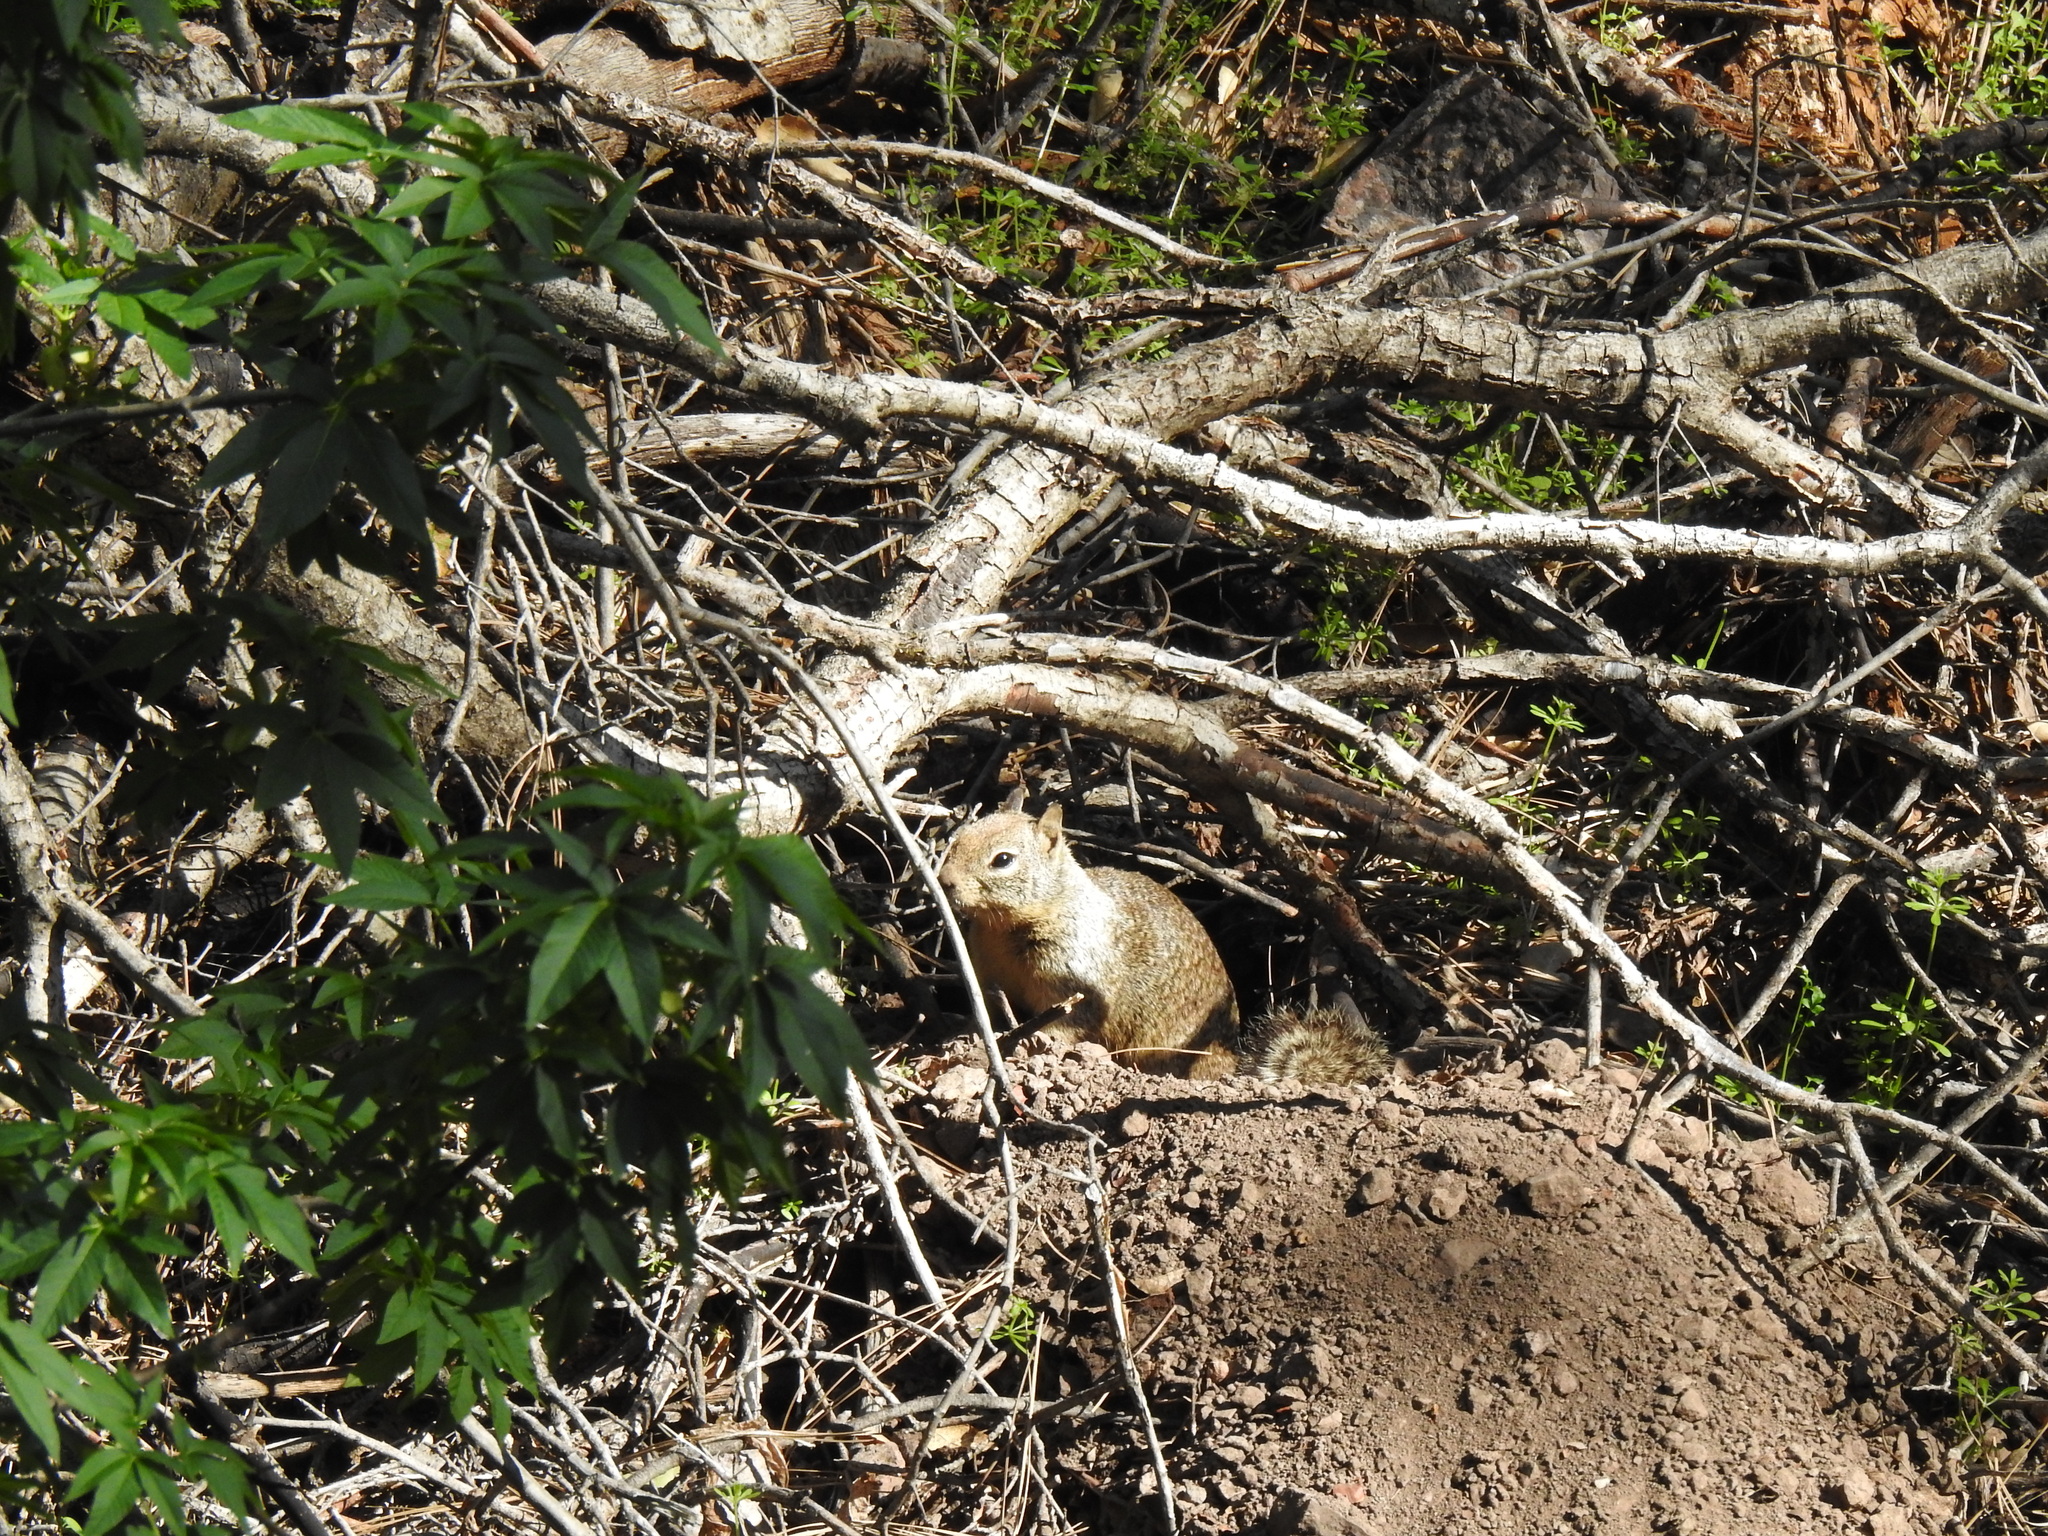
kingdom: Animalia
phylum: Chordata
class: Mammalia
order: Rodentia
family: Sciuridae
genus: Otospermophilus
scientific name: Otospermophilus beecheyi
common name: California ground squirrel
